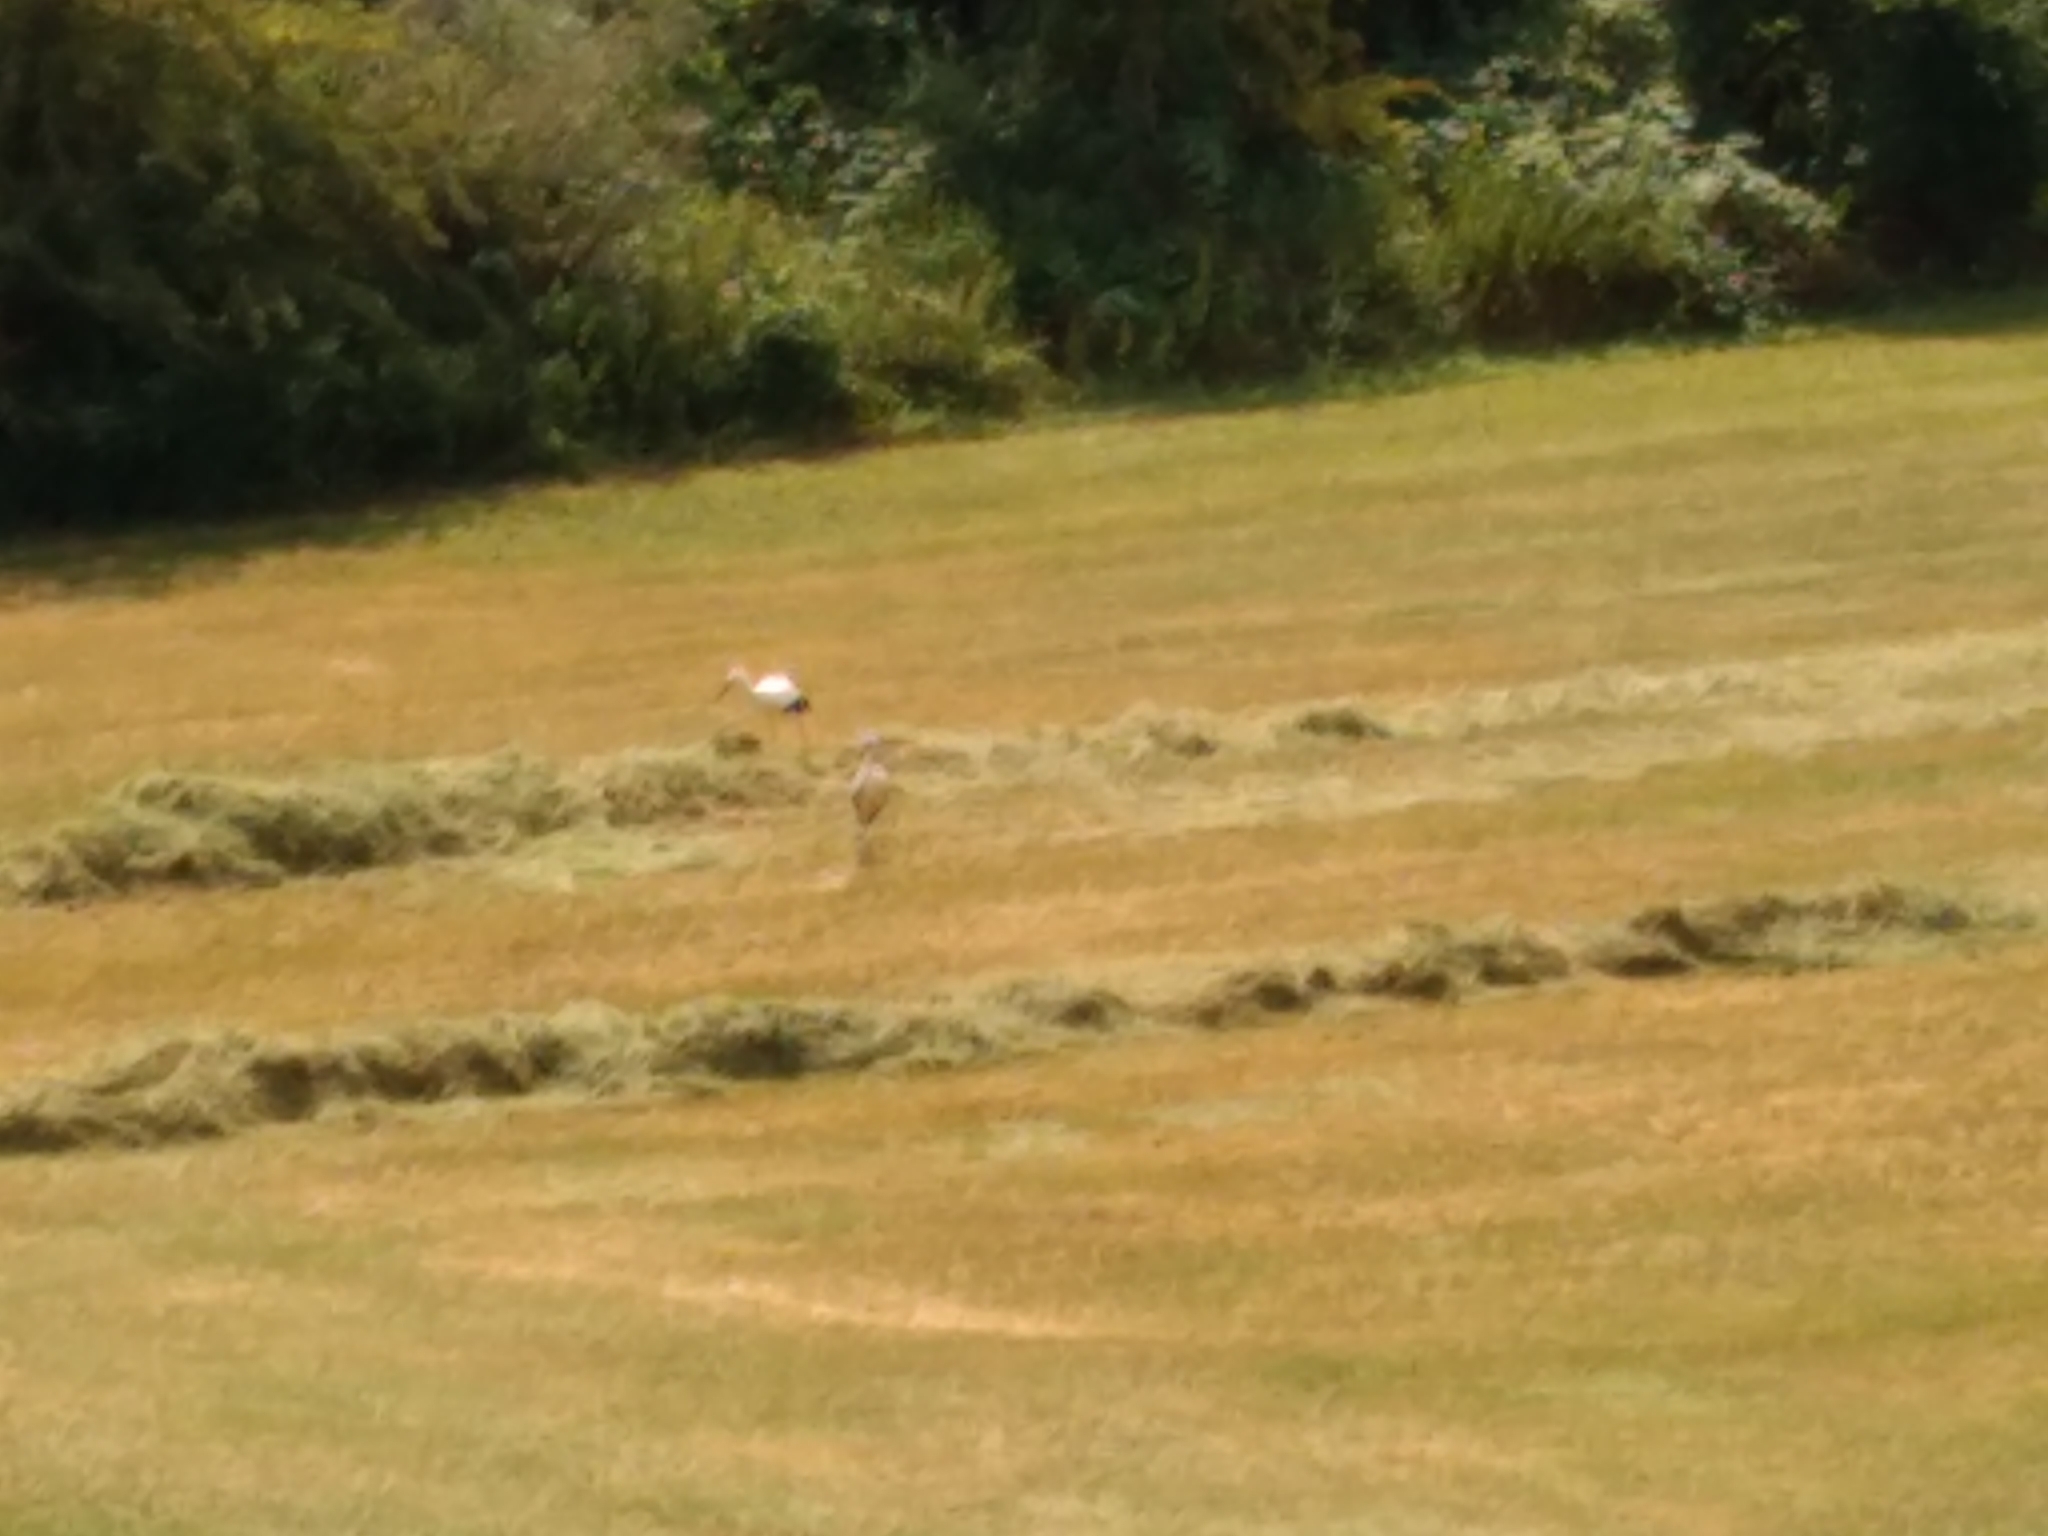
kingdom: Animalia
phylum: Chordata
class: Aves
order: Ciconiiformes
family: Ciconiidae
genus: Ciconia
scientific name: Ciconia ciconia
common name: White stork
